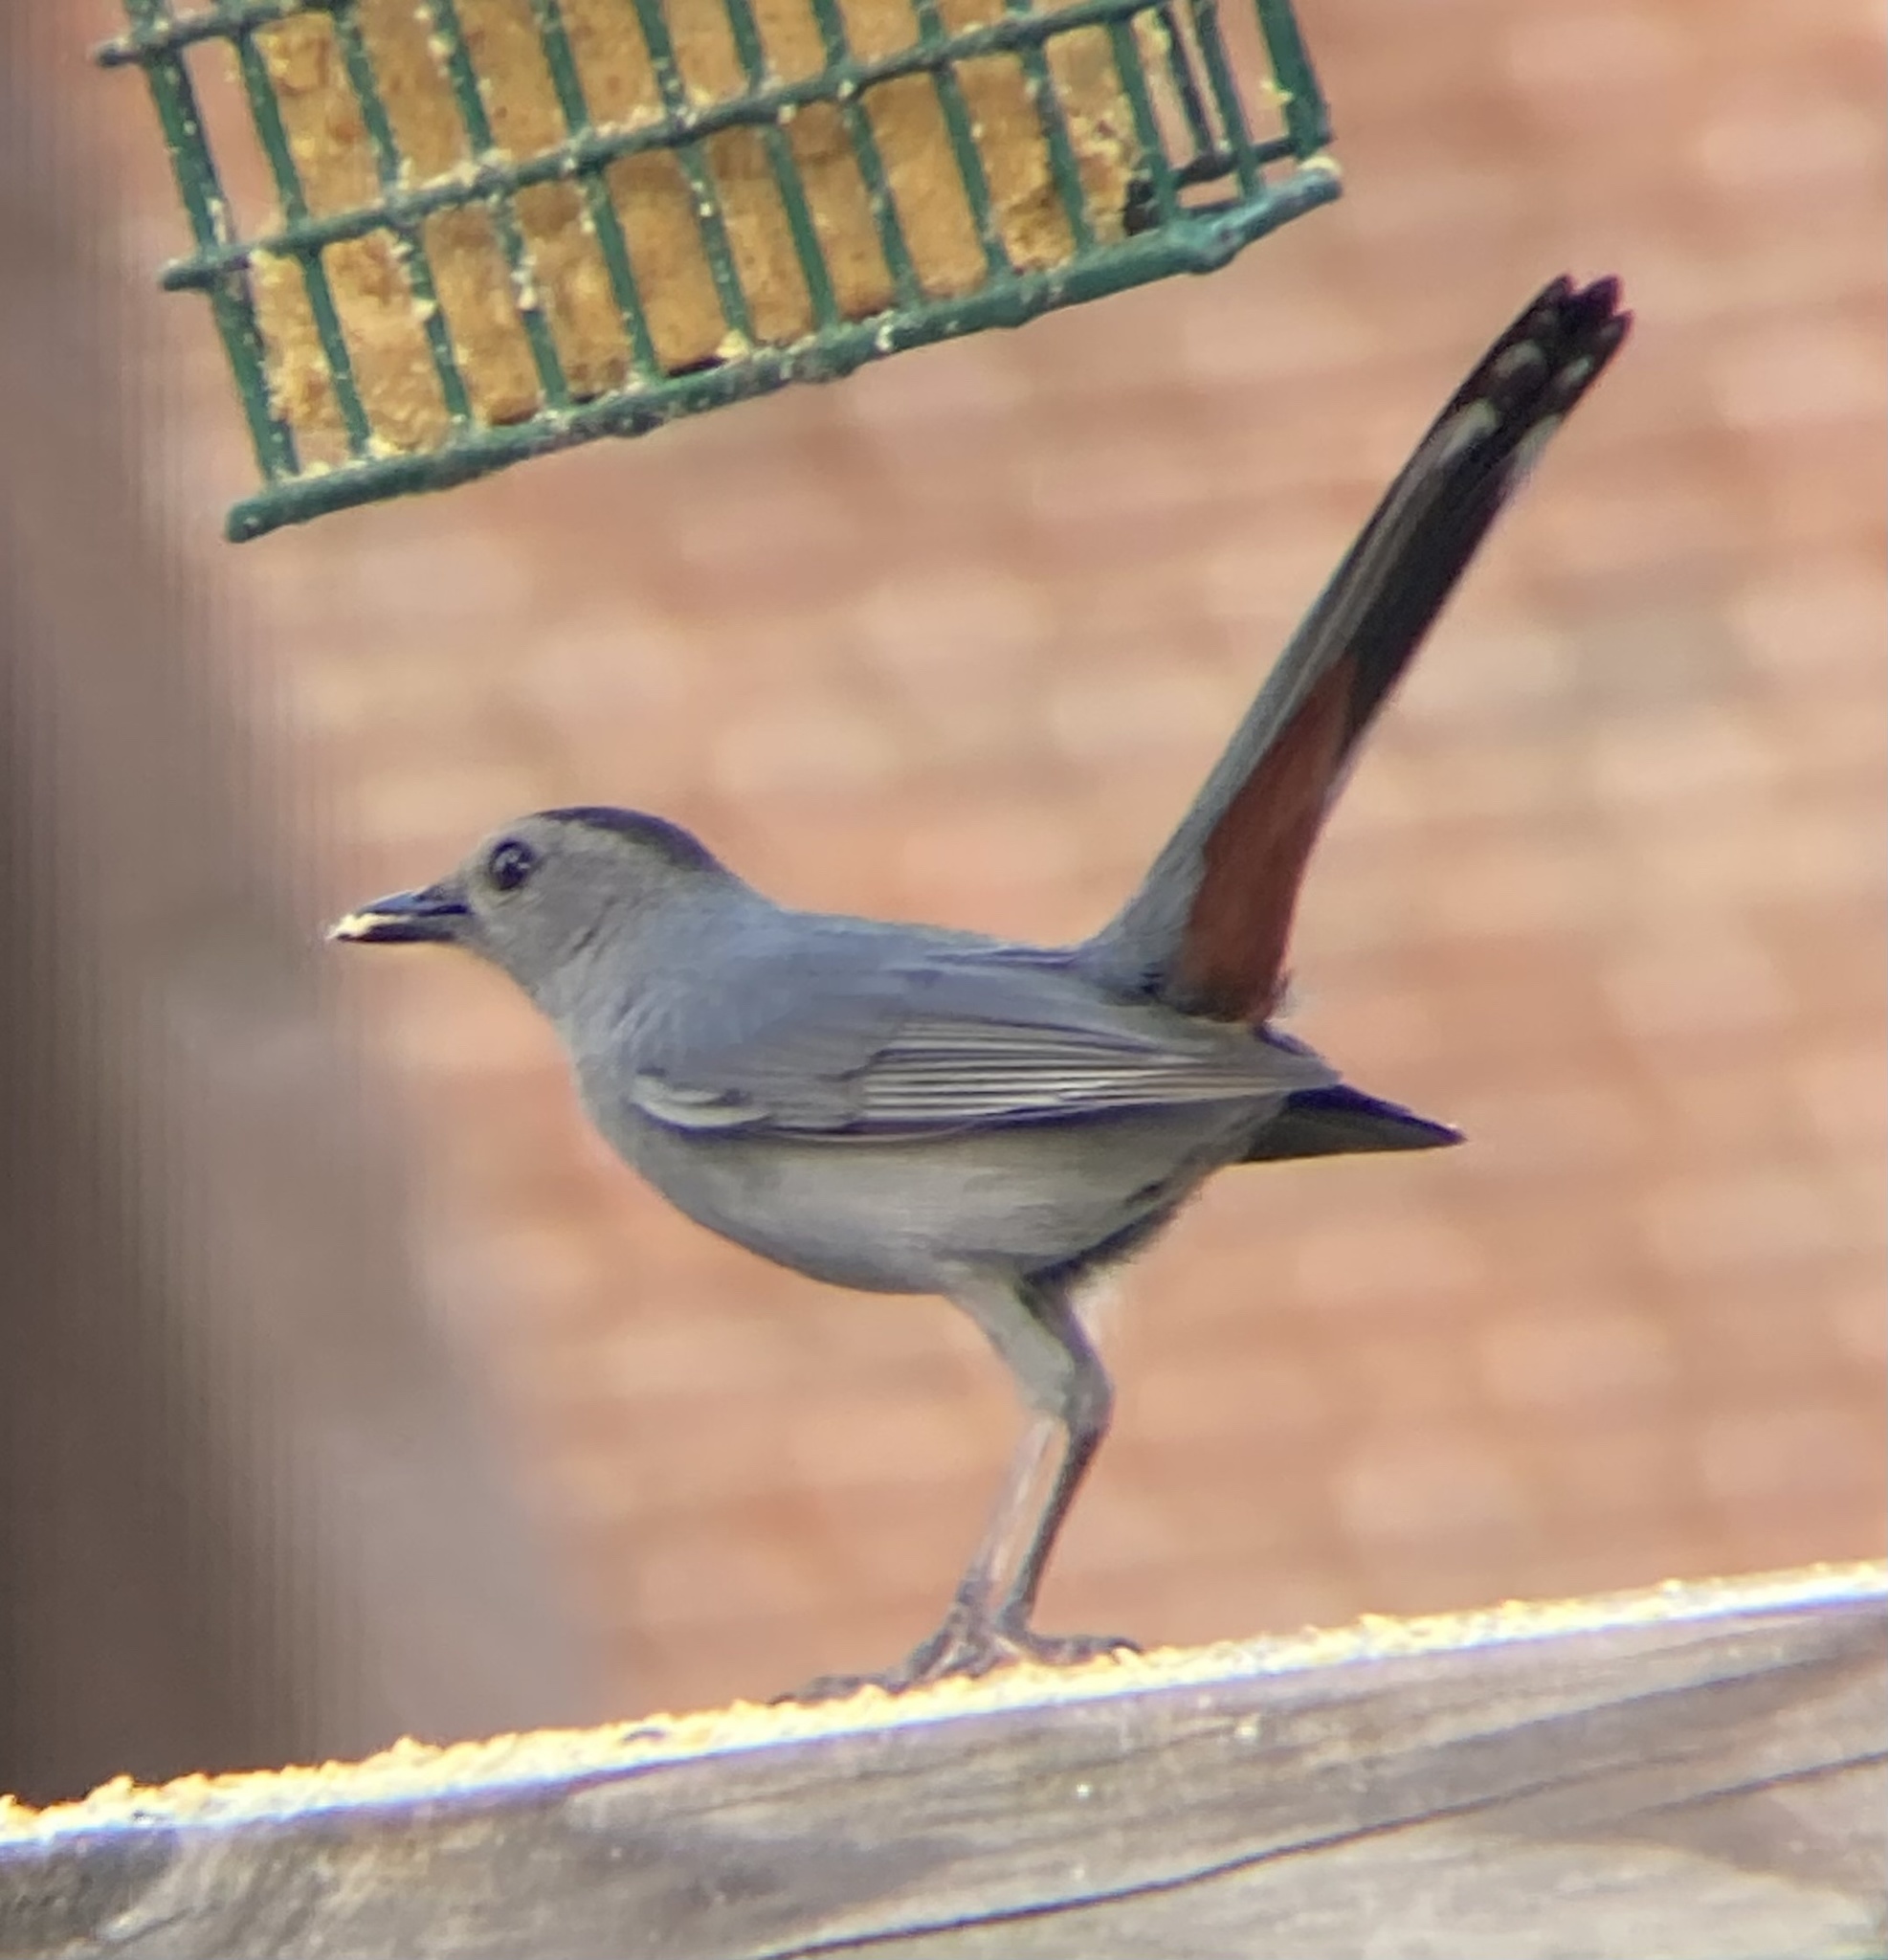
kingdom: Animalia
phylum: Chordata
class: Aves
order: Passeriformes
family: Mimidae
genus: Dumetella
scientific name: Dumetella carolinensis
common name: Gray catbird
